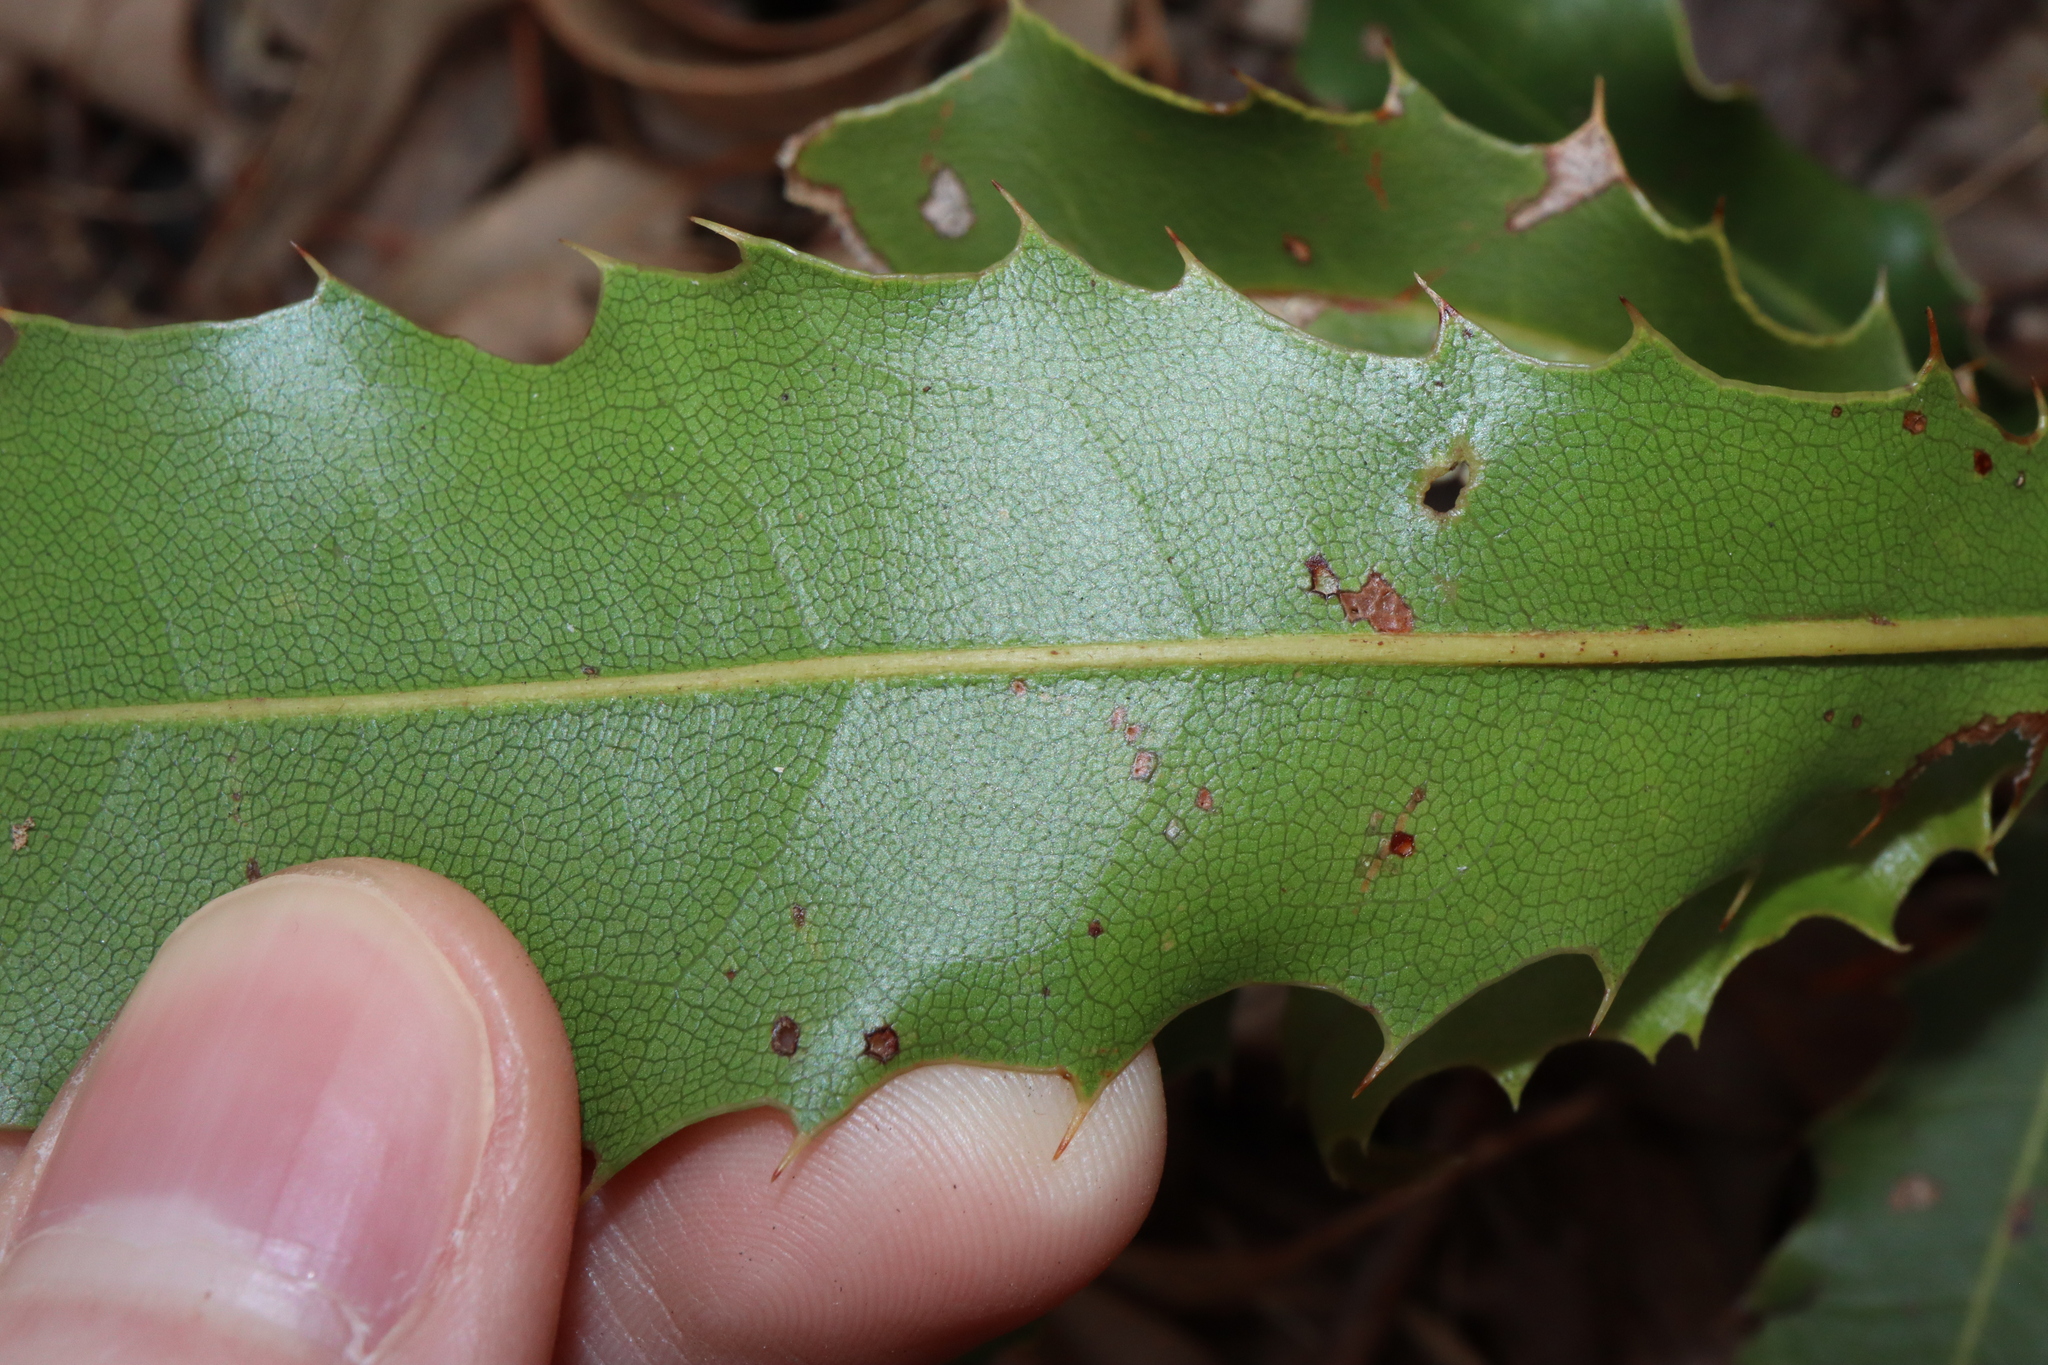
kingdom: Plantae
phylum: Tracheophyta
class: Magnoliopsida
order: Proteales
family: Proteaceae
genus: Macadamia
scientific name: Macadamia integrifolia
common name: Macadamia
